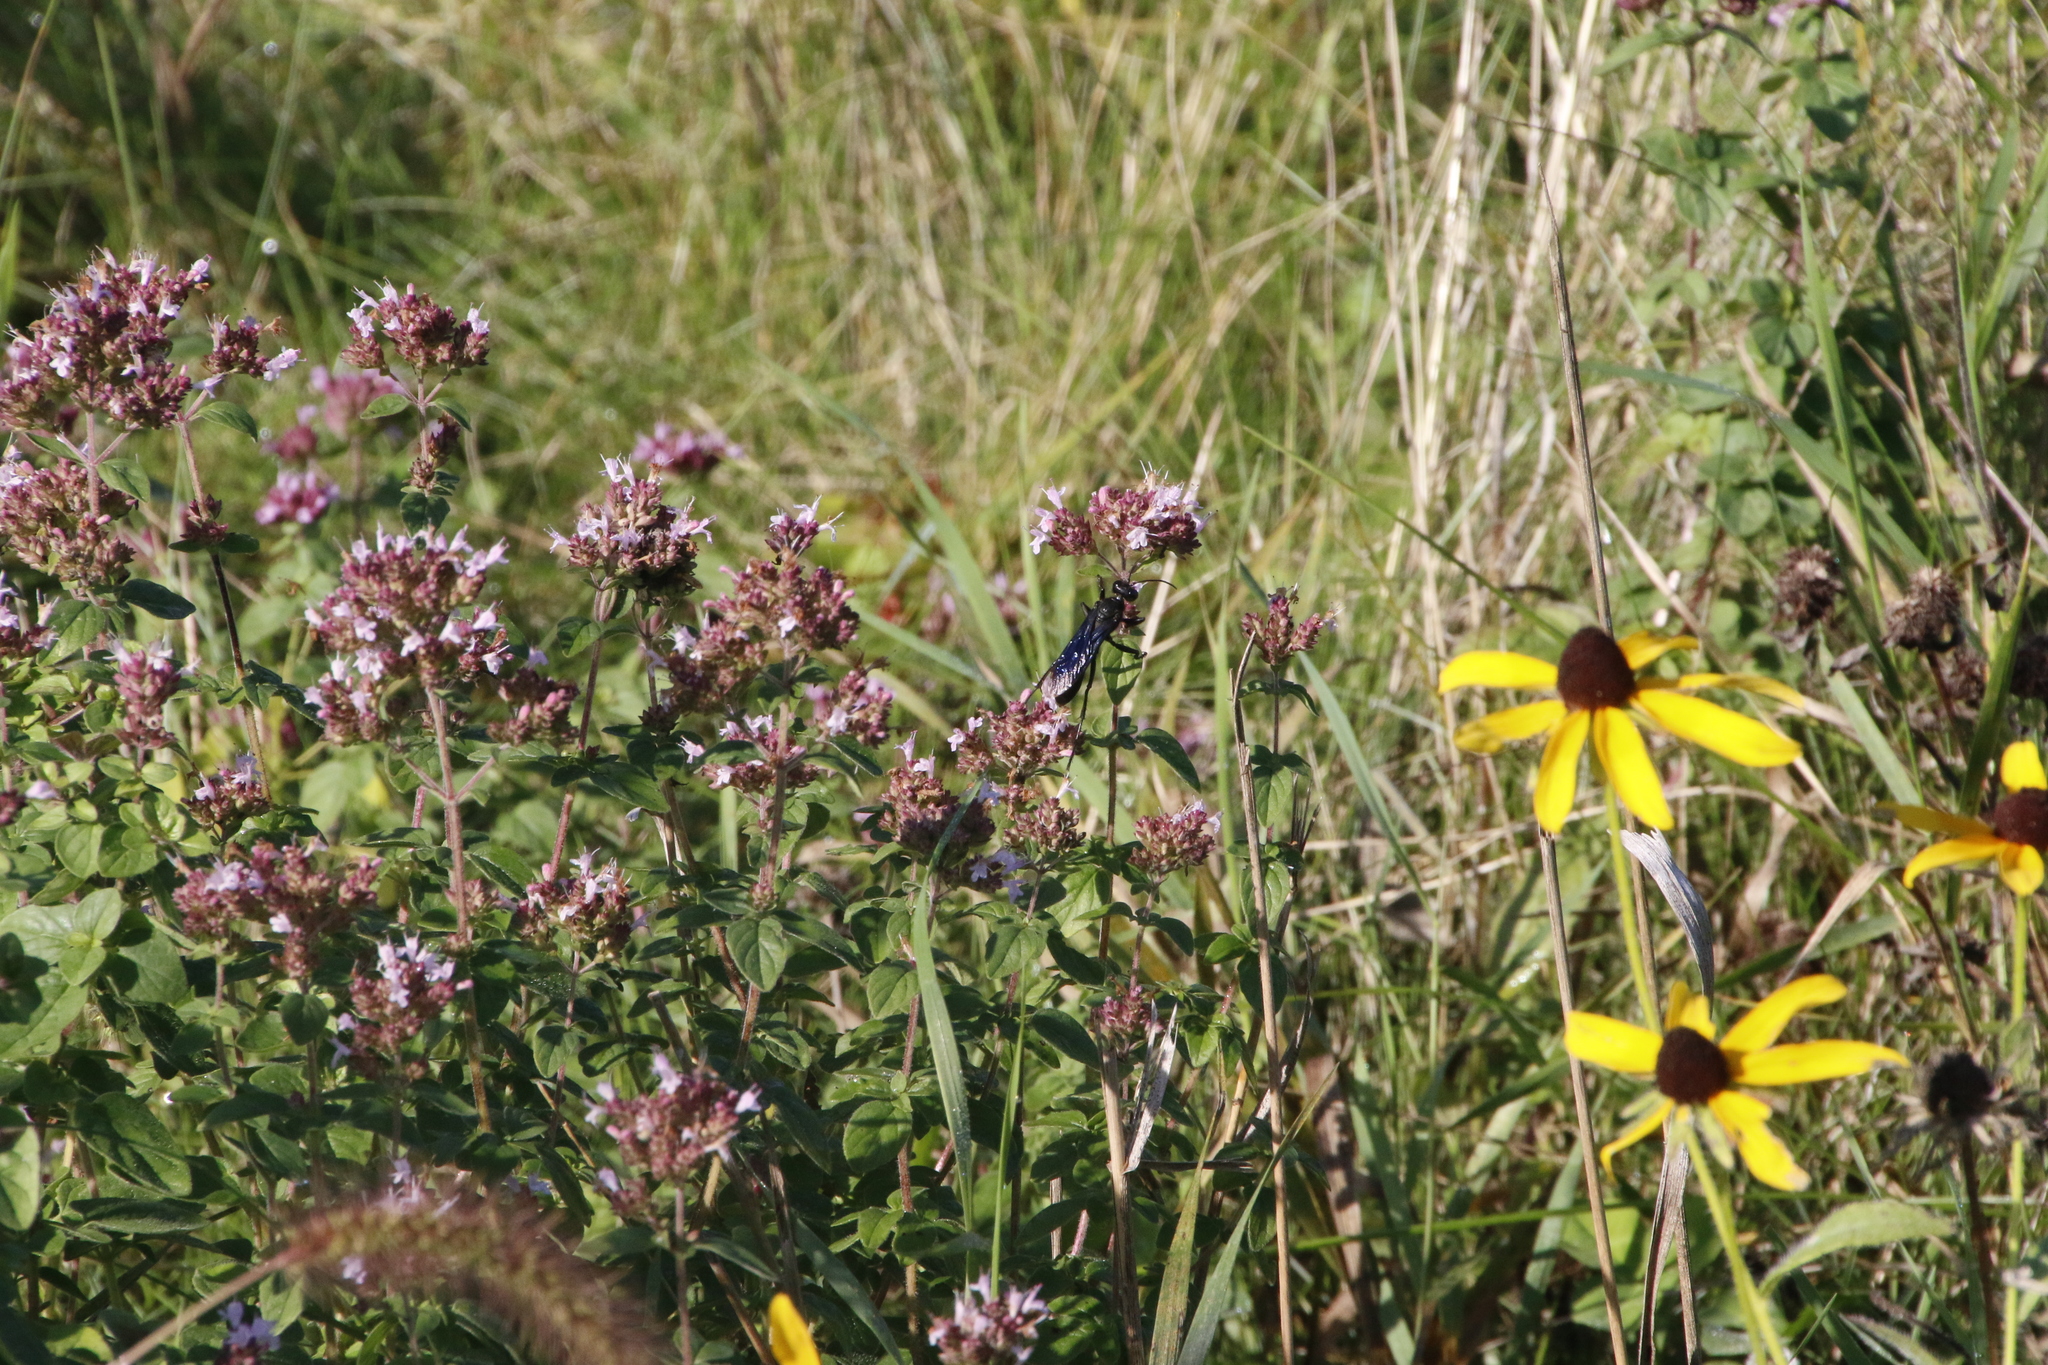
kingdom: Animalia
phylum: Arthropoda
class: Insecta
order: Hymenoptera
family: Sphecidae
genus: Sphex
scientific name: Sphex pensylvanicus
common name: Great black digger wasp
